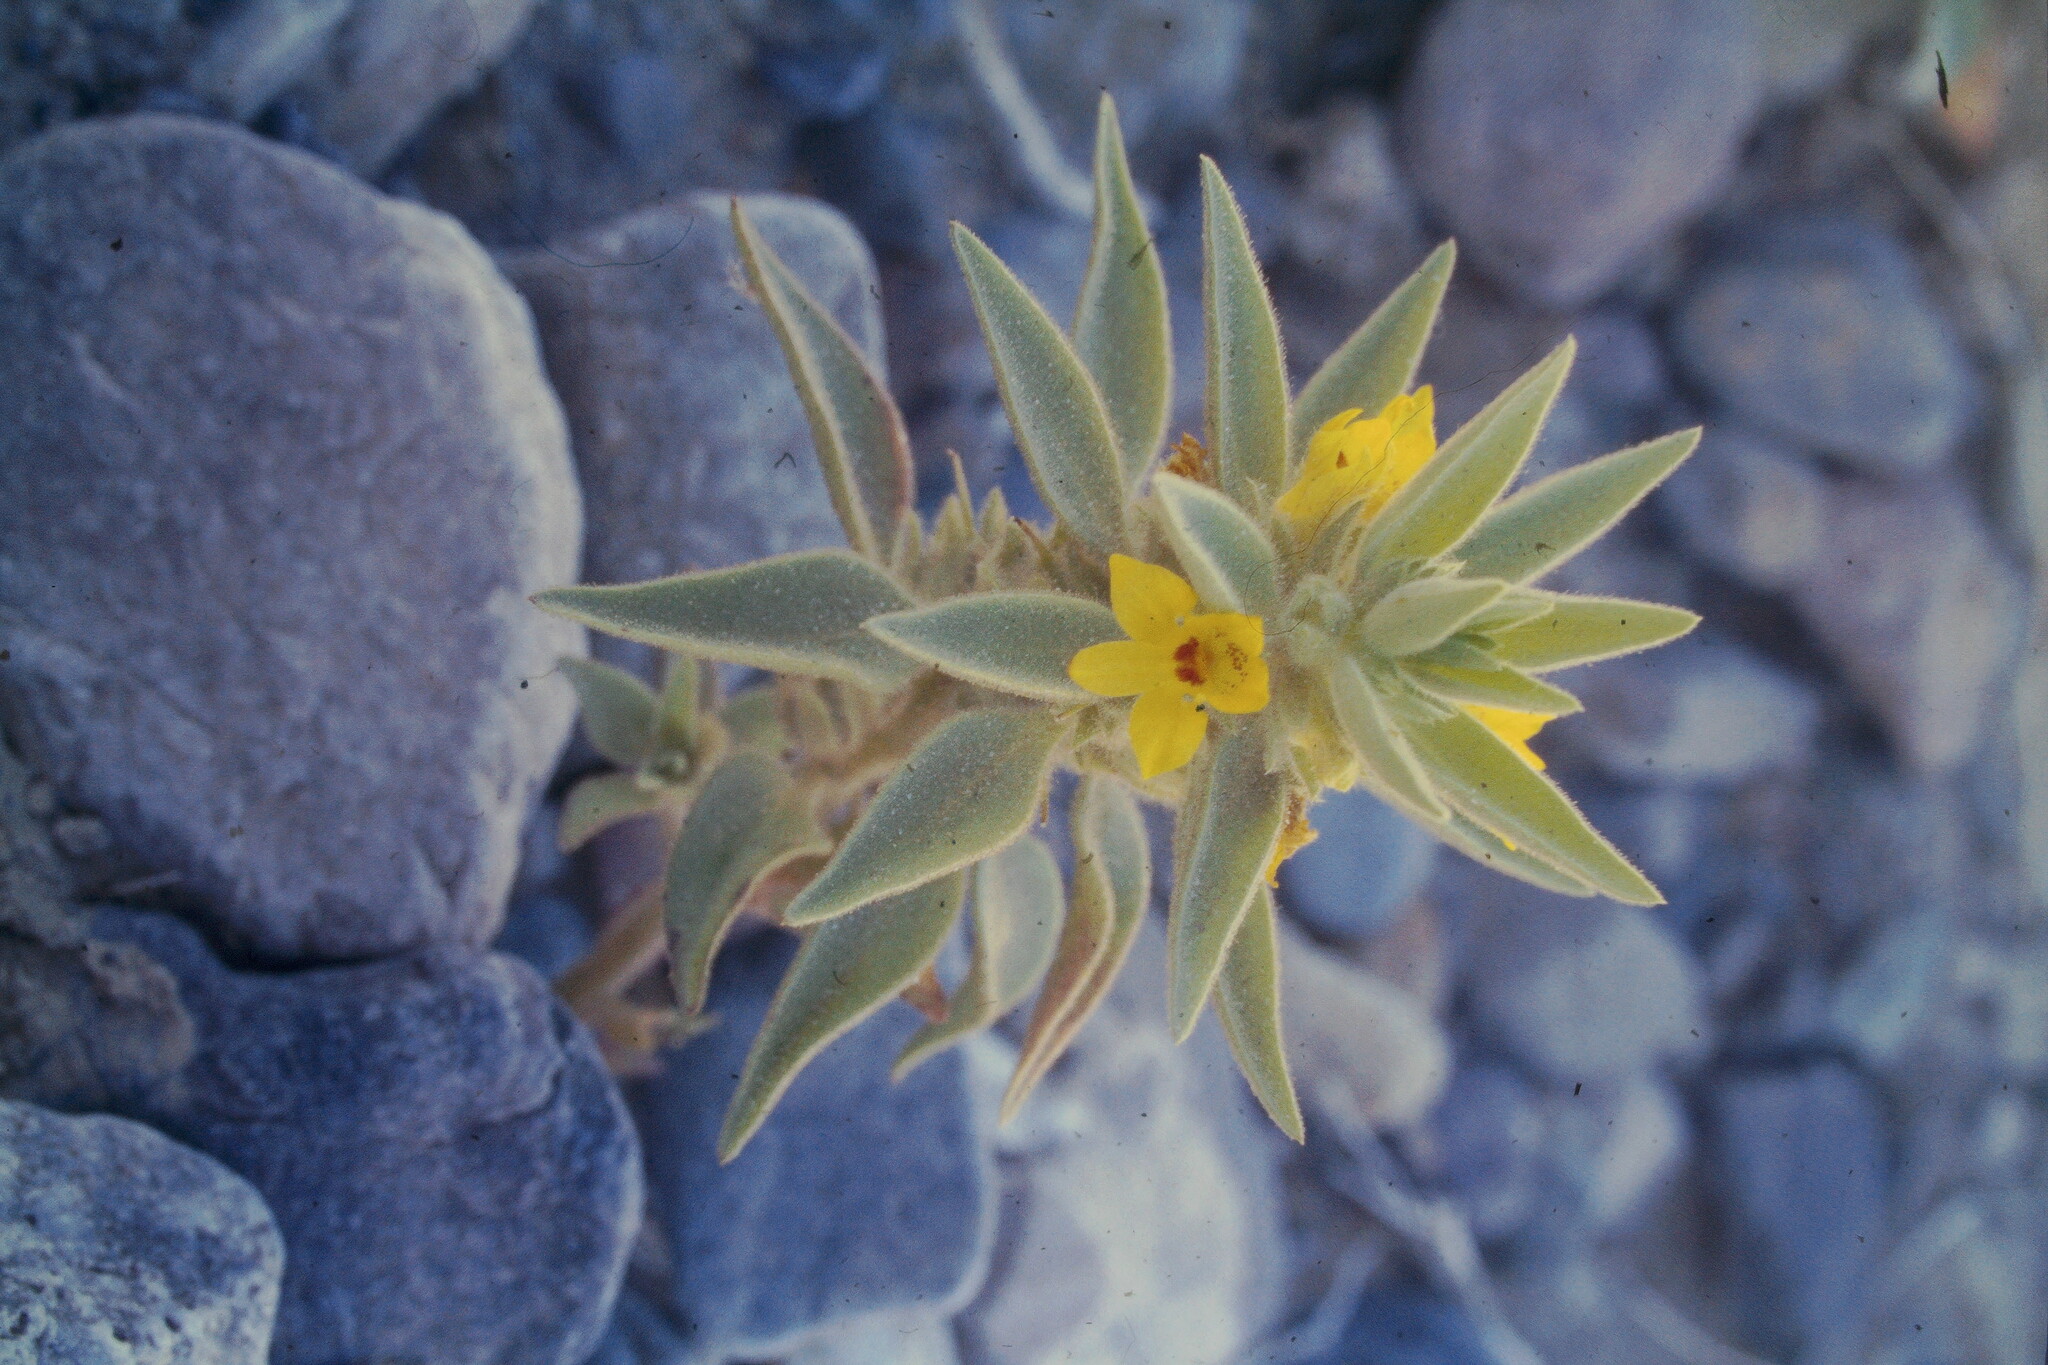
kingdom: Plantae
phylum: Tracheophyta
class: Magnoliopsida
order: Lamiales
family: Plantaginaceae
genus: Mohavea
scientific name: Mohavea breviflora
